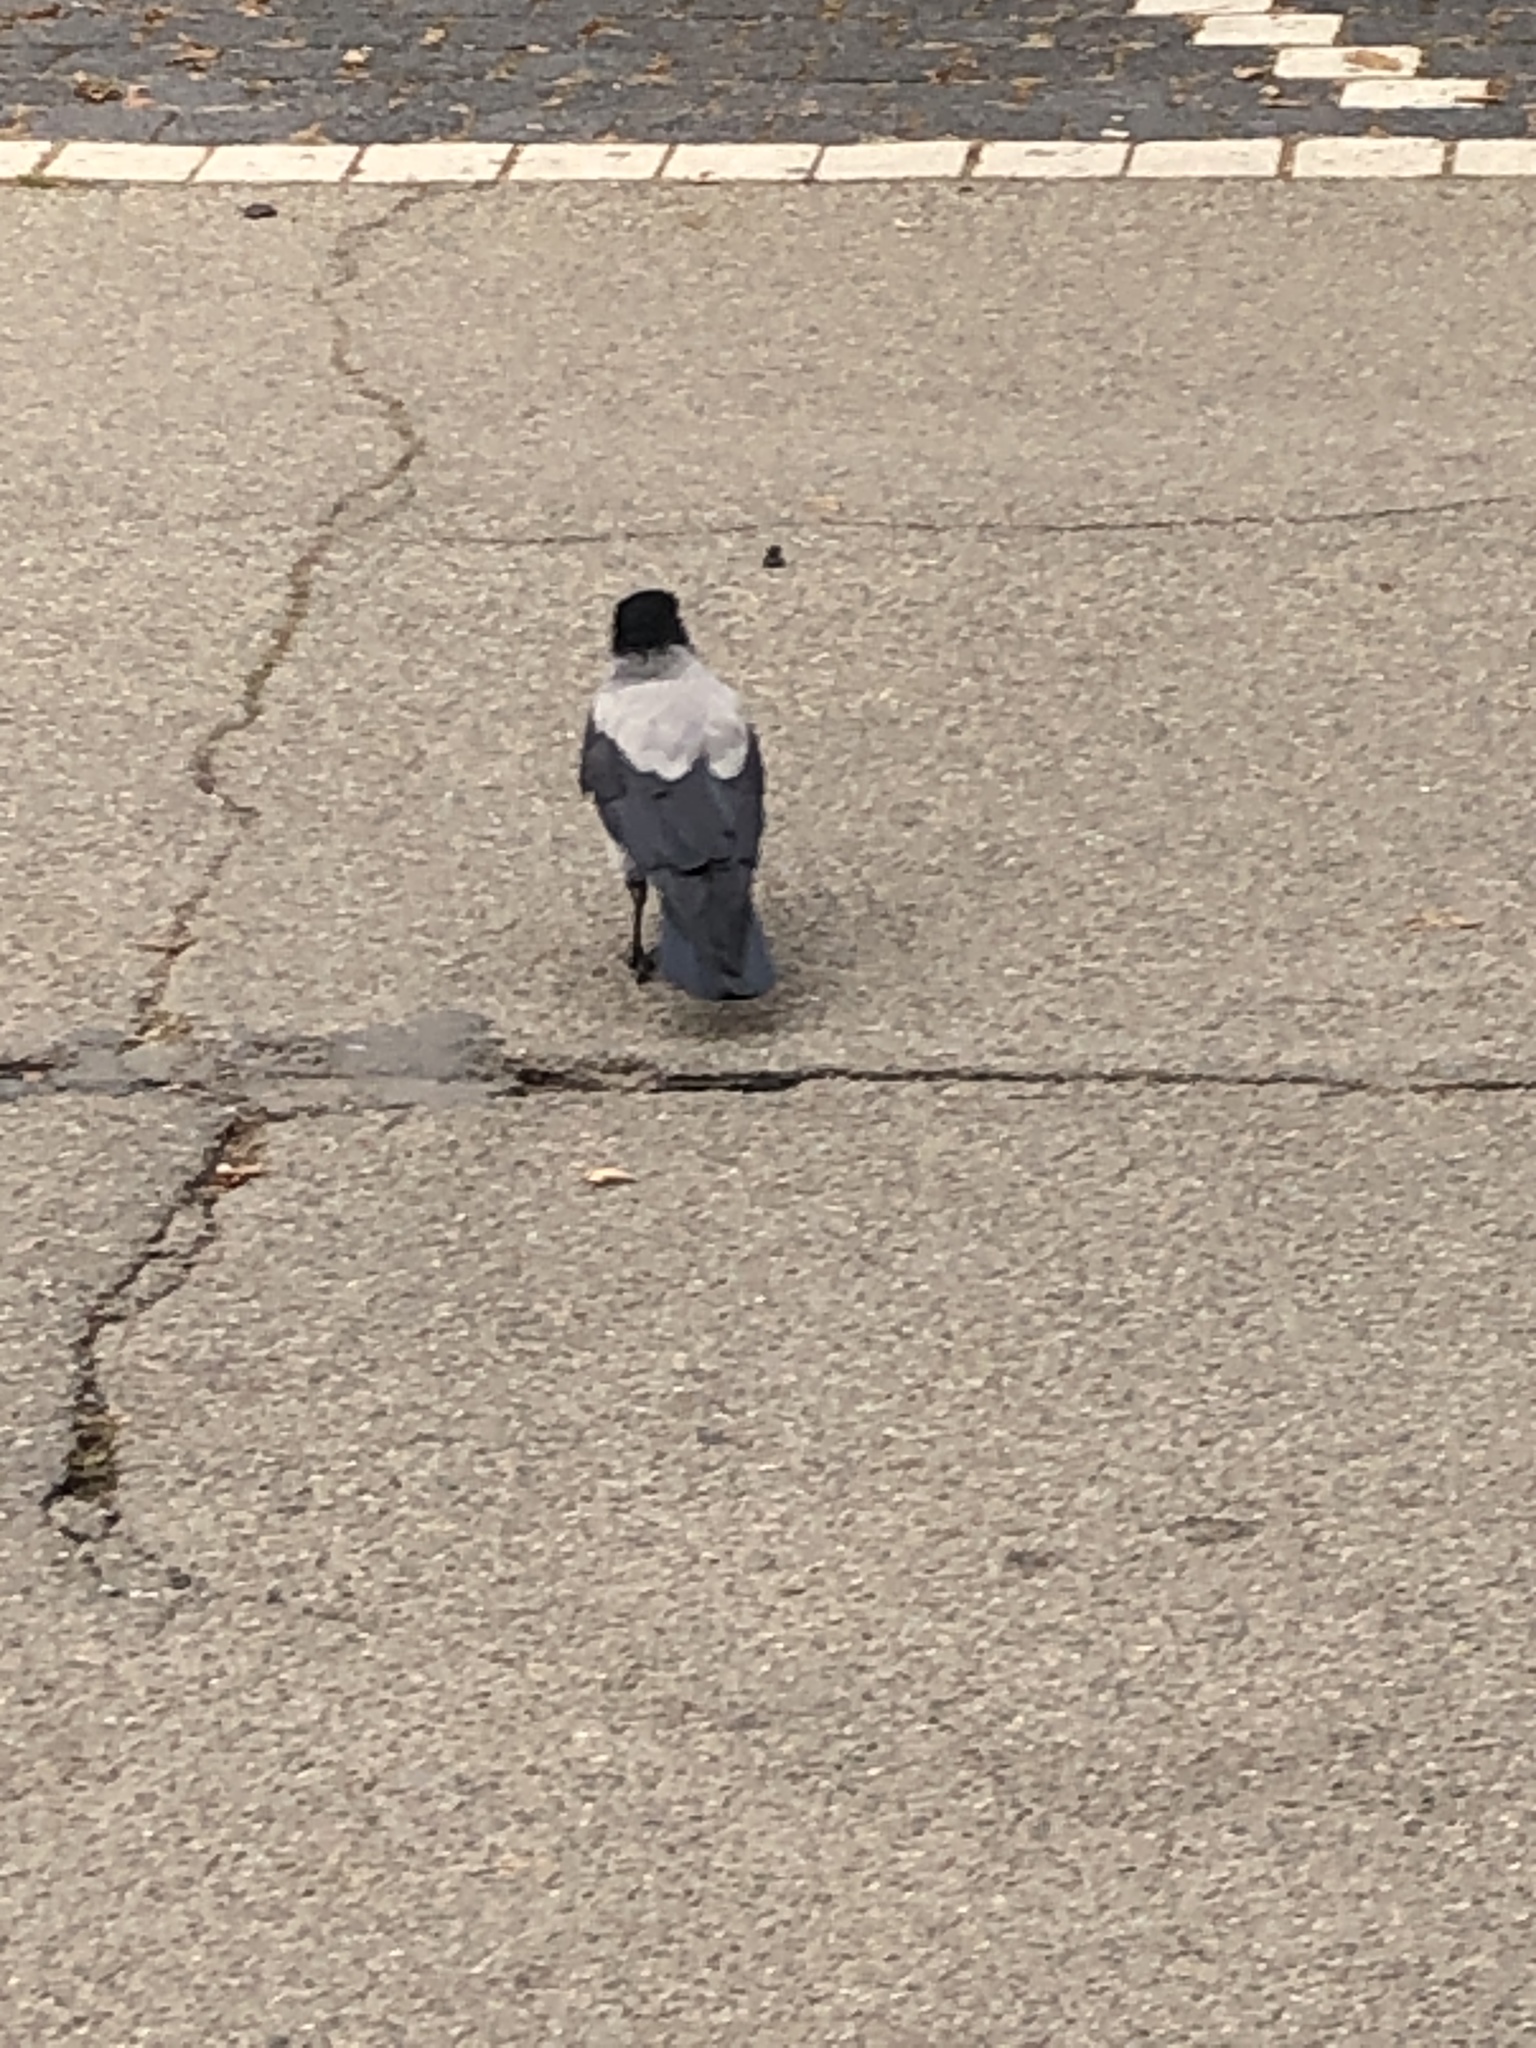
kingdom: Animalia
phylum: Chordata
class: Aves
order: Passeriformes
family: Corvidae
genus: Corvus
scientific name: Corvus cornix
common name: Hooded crow
